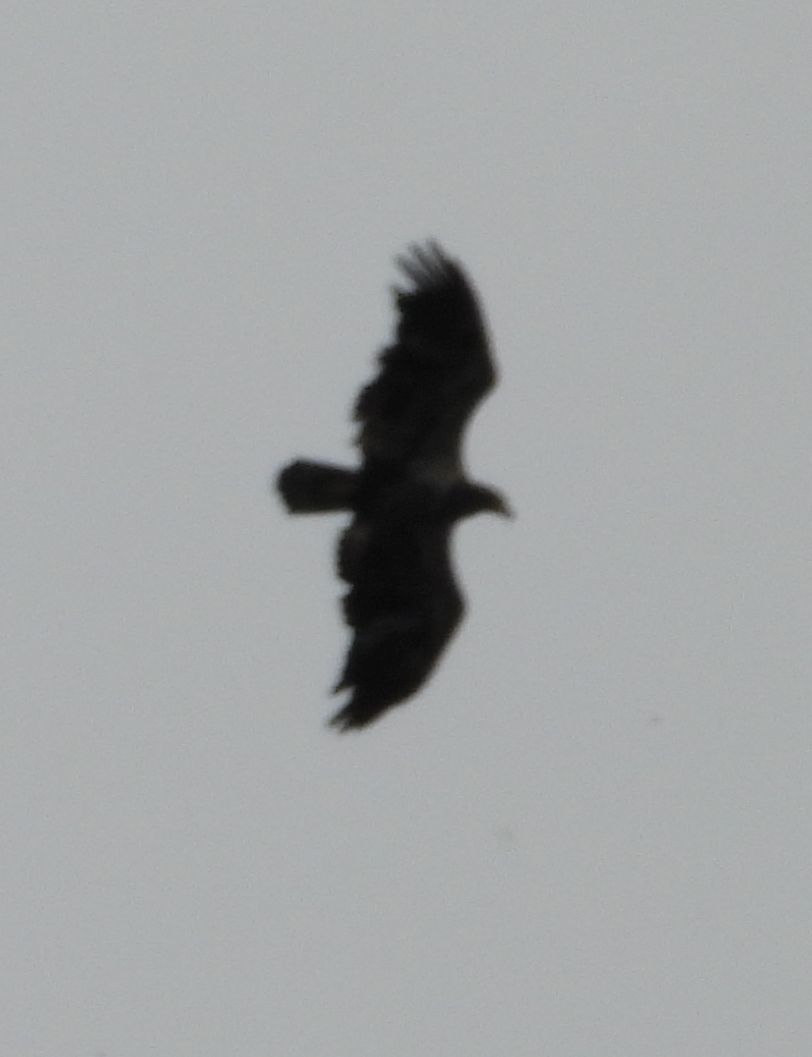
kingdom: Animalia
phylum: Chordata
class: Aves
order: Accipitriformes
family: Accipitridae
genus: Haliaeetus
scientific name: Haliaeetus leucocephalus
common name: Bald eagle
